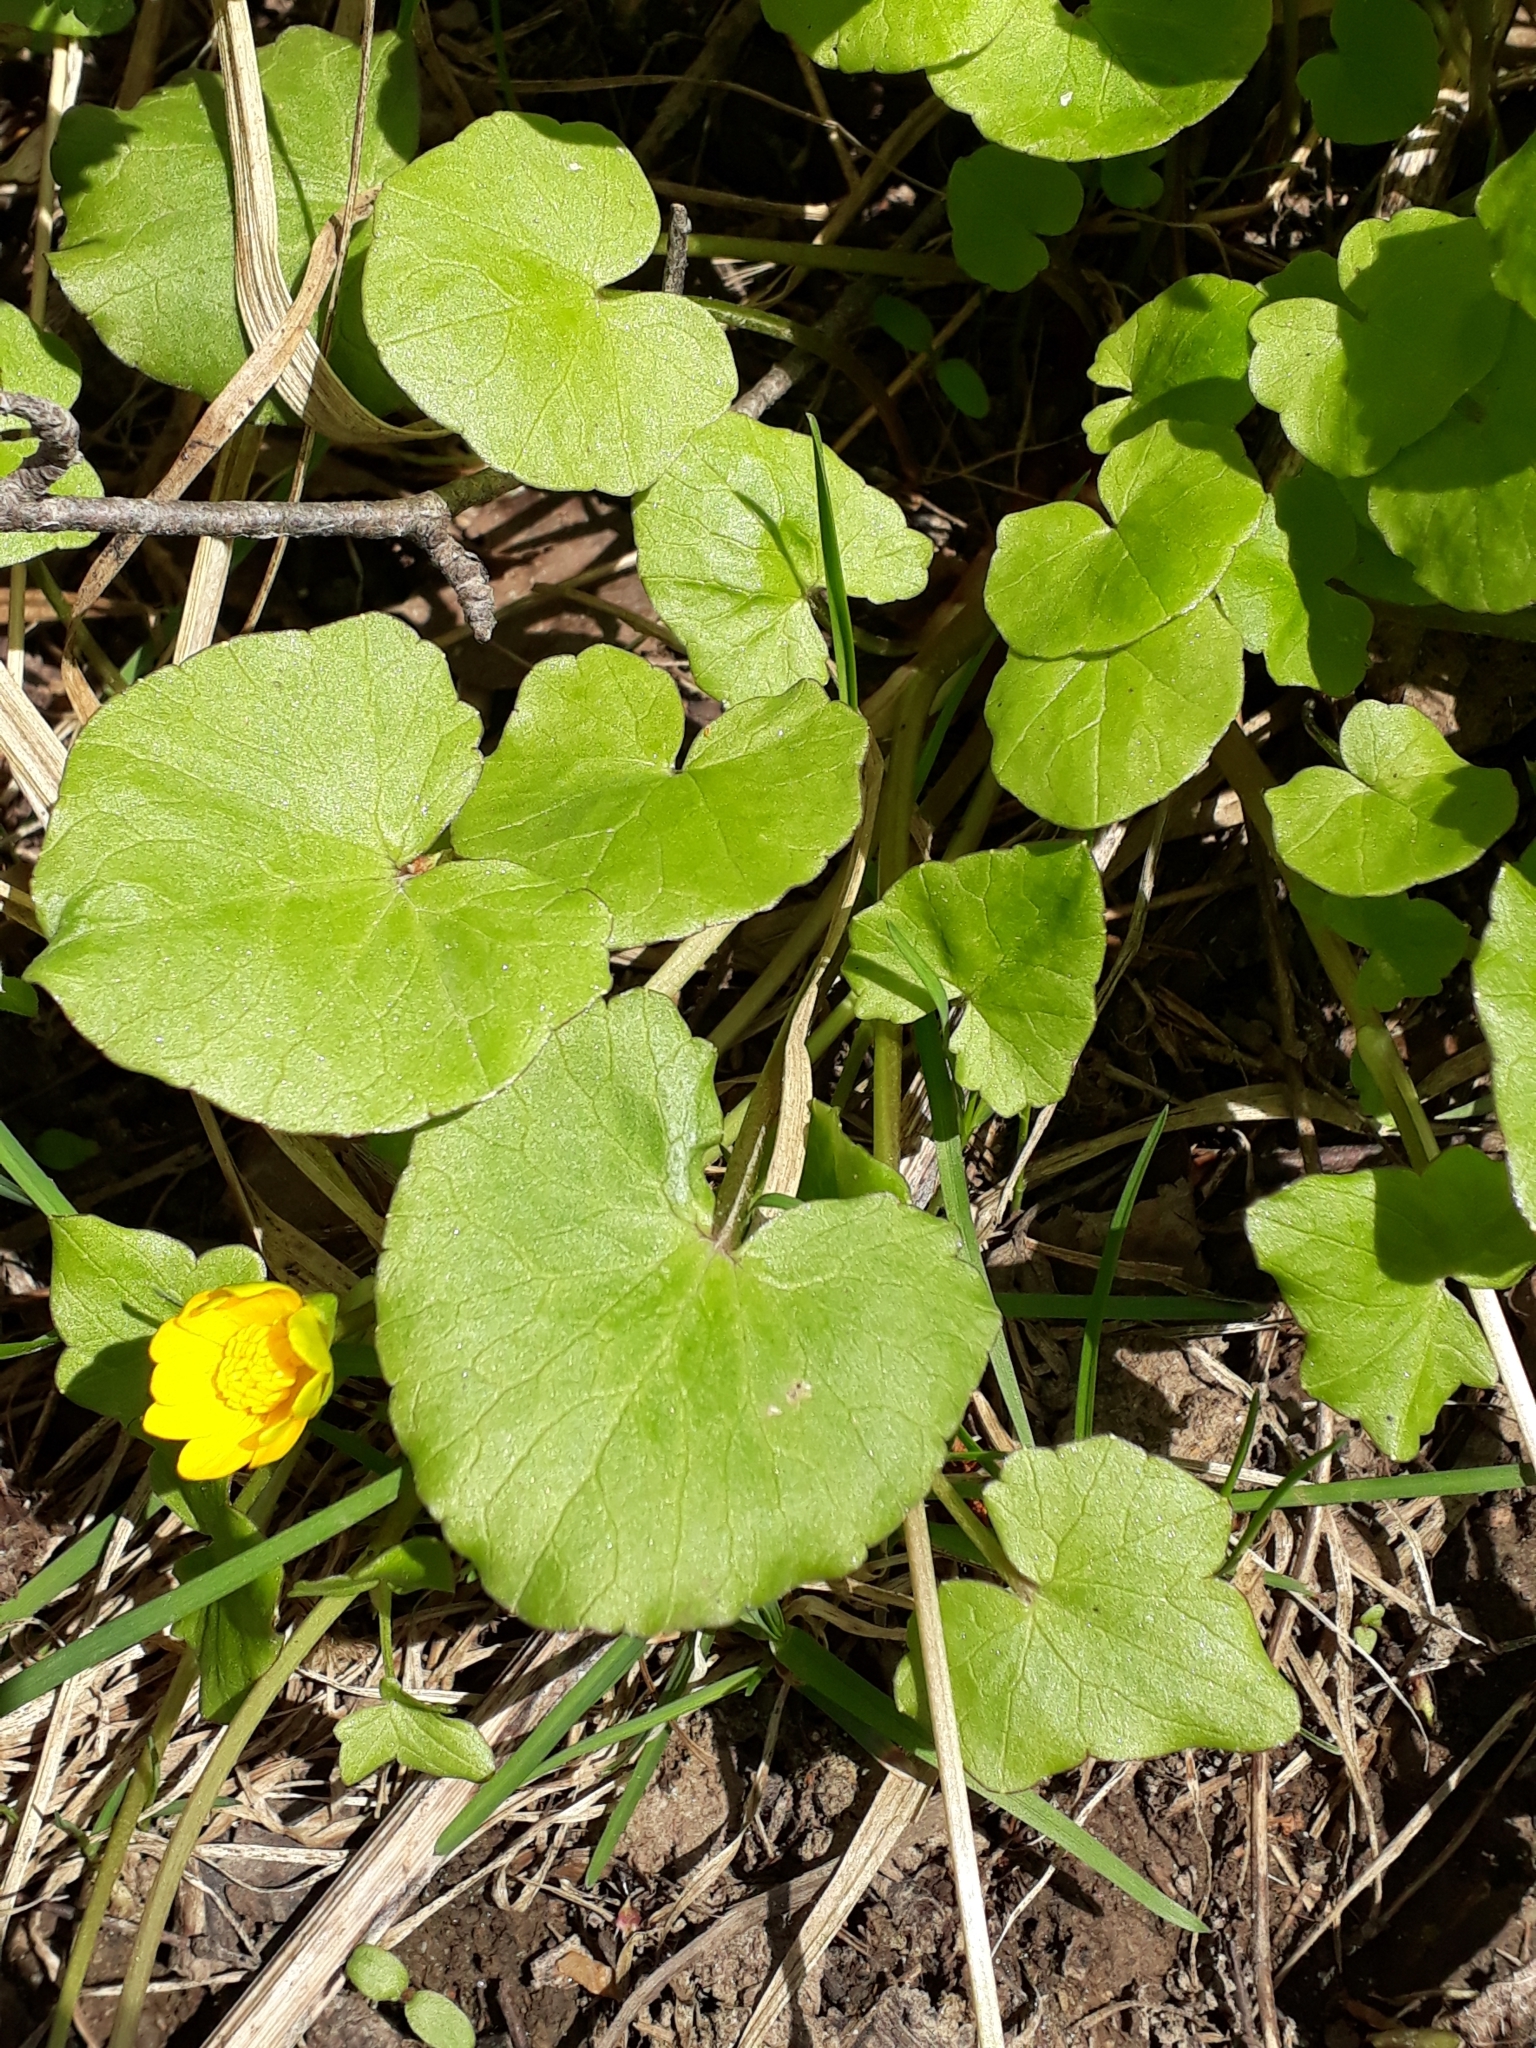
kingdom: Plantae
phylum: Tracheophyta
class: Magnoliopsida
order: Ranunculales
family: Ranunculaceae
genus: Ficaria
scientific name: Ficaria verna
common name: Lesser celandine
